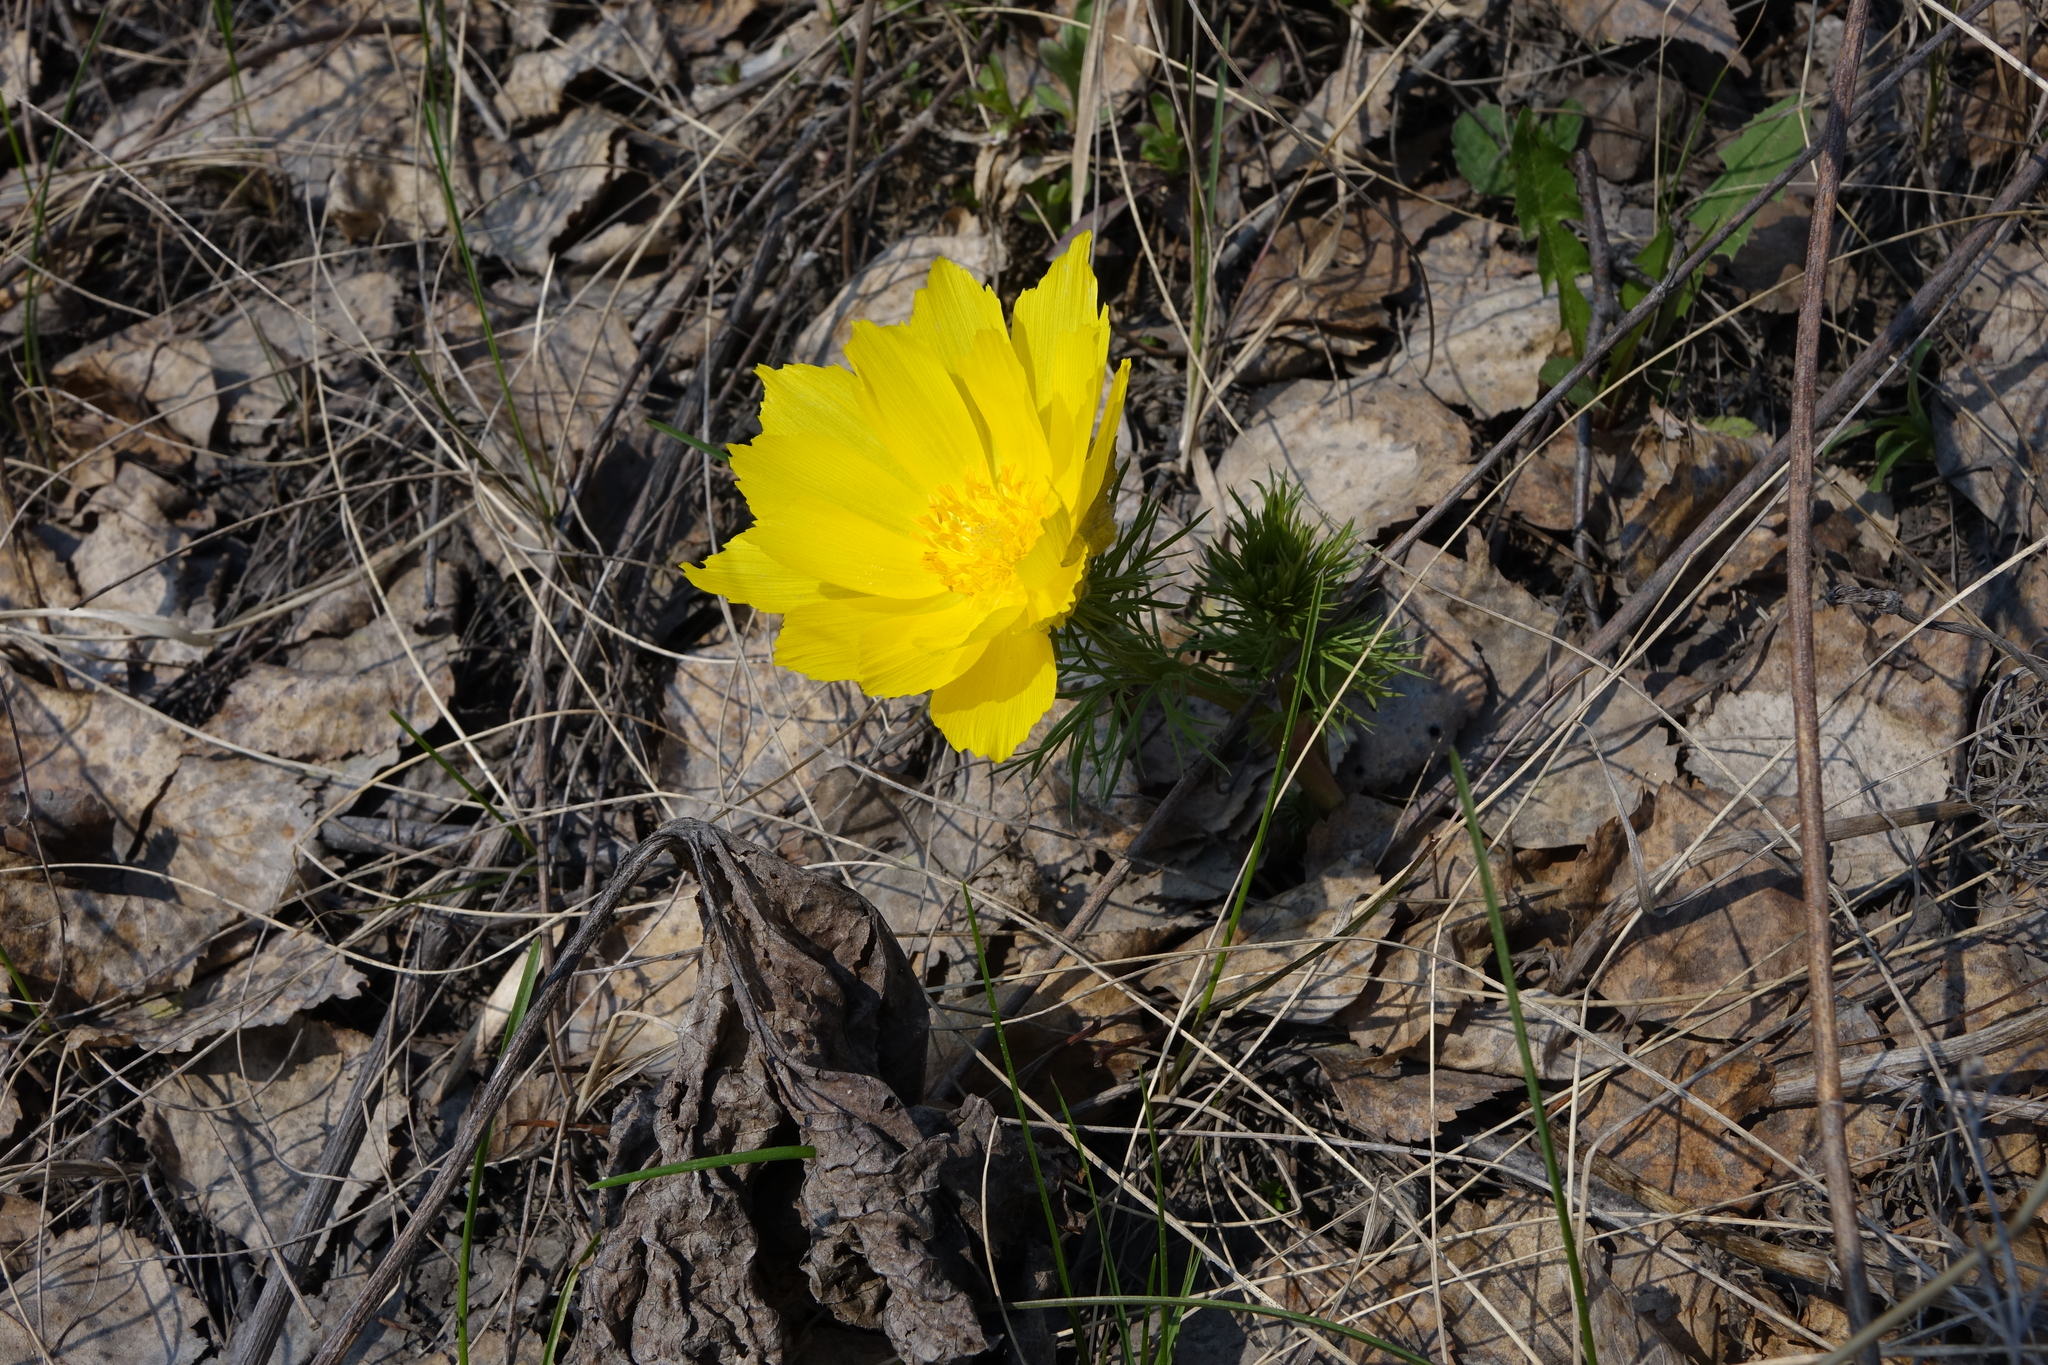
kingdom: Plantae
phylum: Tracheophyta
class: Magnoliopsida
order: Ranunculales
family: Ranunculaceae
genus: Adonis
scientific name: Adonis vernalis
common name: Yellow pheasants-eye
